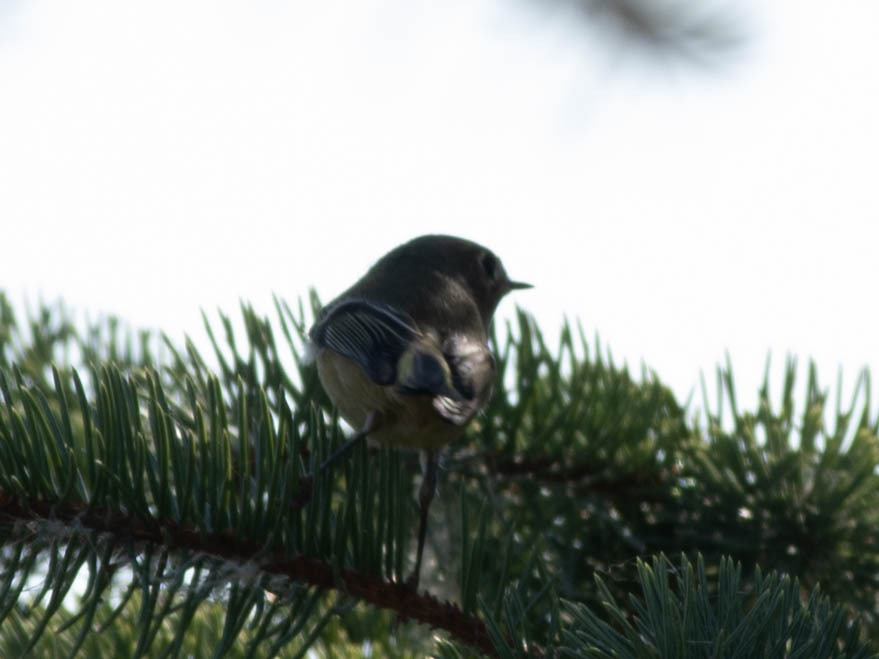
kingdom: Animalia
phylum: Chordata
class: Aves
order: Passeriformes
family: Regulidae
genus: Regulus
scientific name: Regulus calendula
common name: Ruby-crowned kinglet
